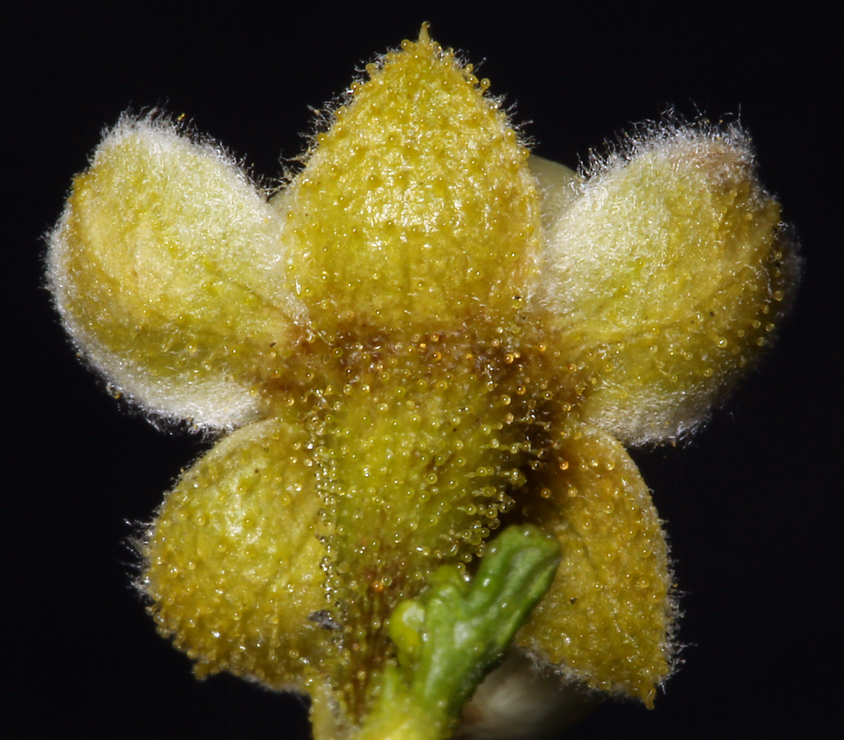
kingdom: Plantae
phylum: Tracheophyta
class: Magnoliopsida
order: Rosales
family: Rosaceae
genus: Purshia
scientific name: Purshia stansburiana
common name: Stansbury's cliffrose
